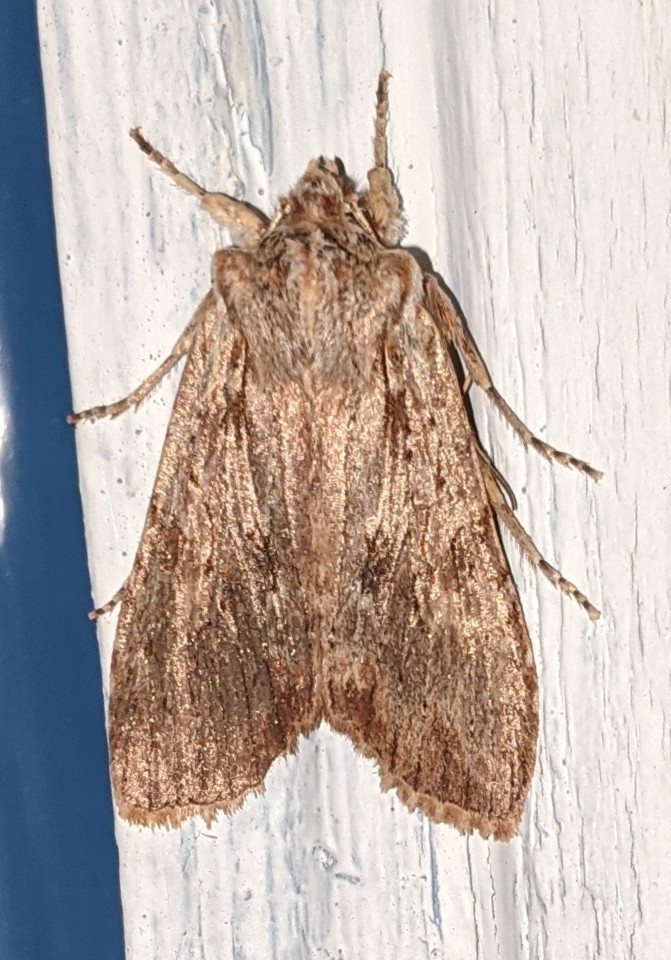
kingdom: Animalia
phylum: Arthropoda
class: Insecta
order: Lepidoptera
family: Noctuidae
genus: Achatia
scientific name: Achatia confusa
